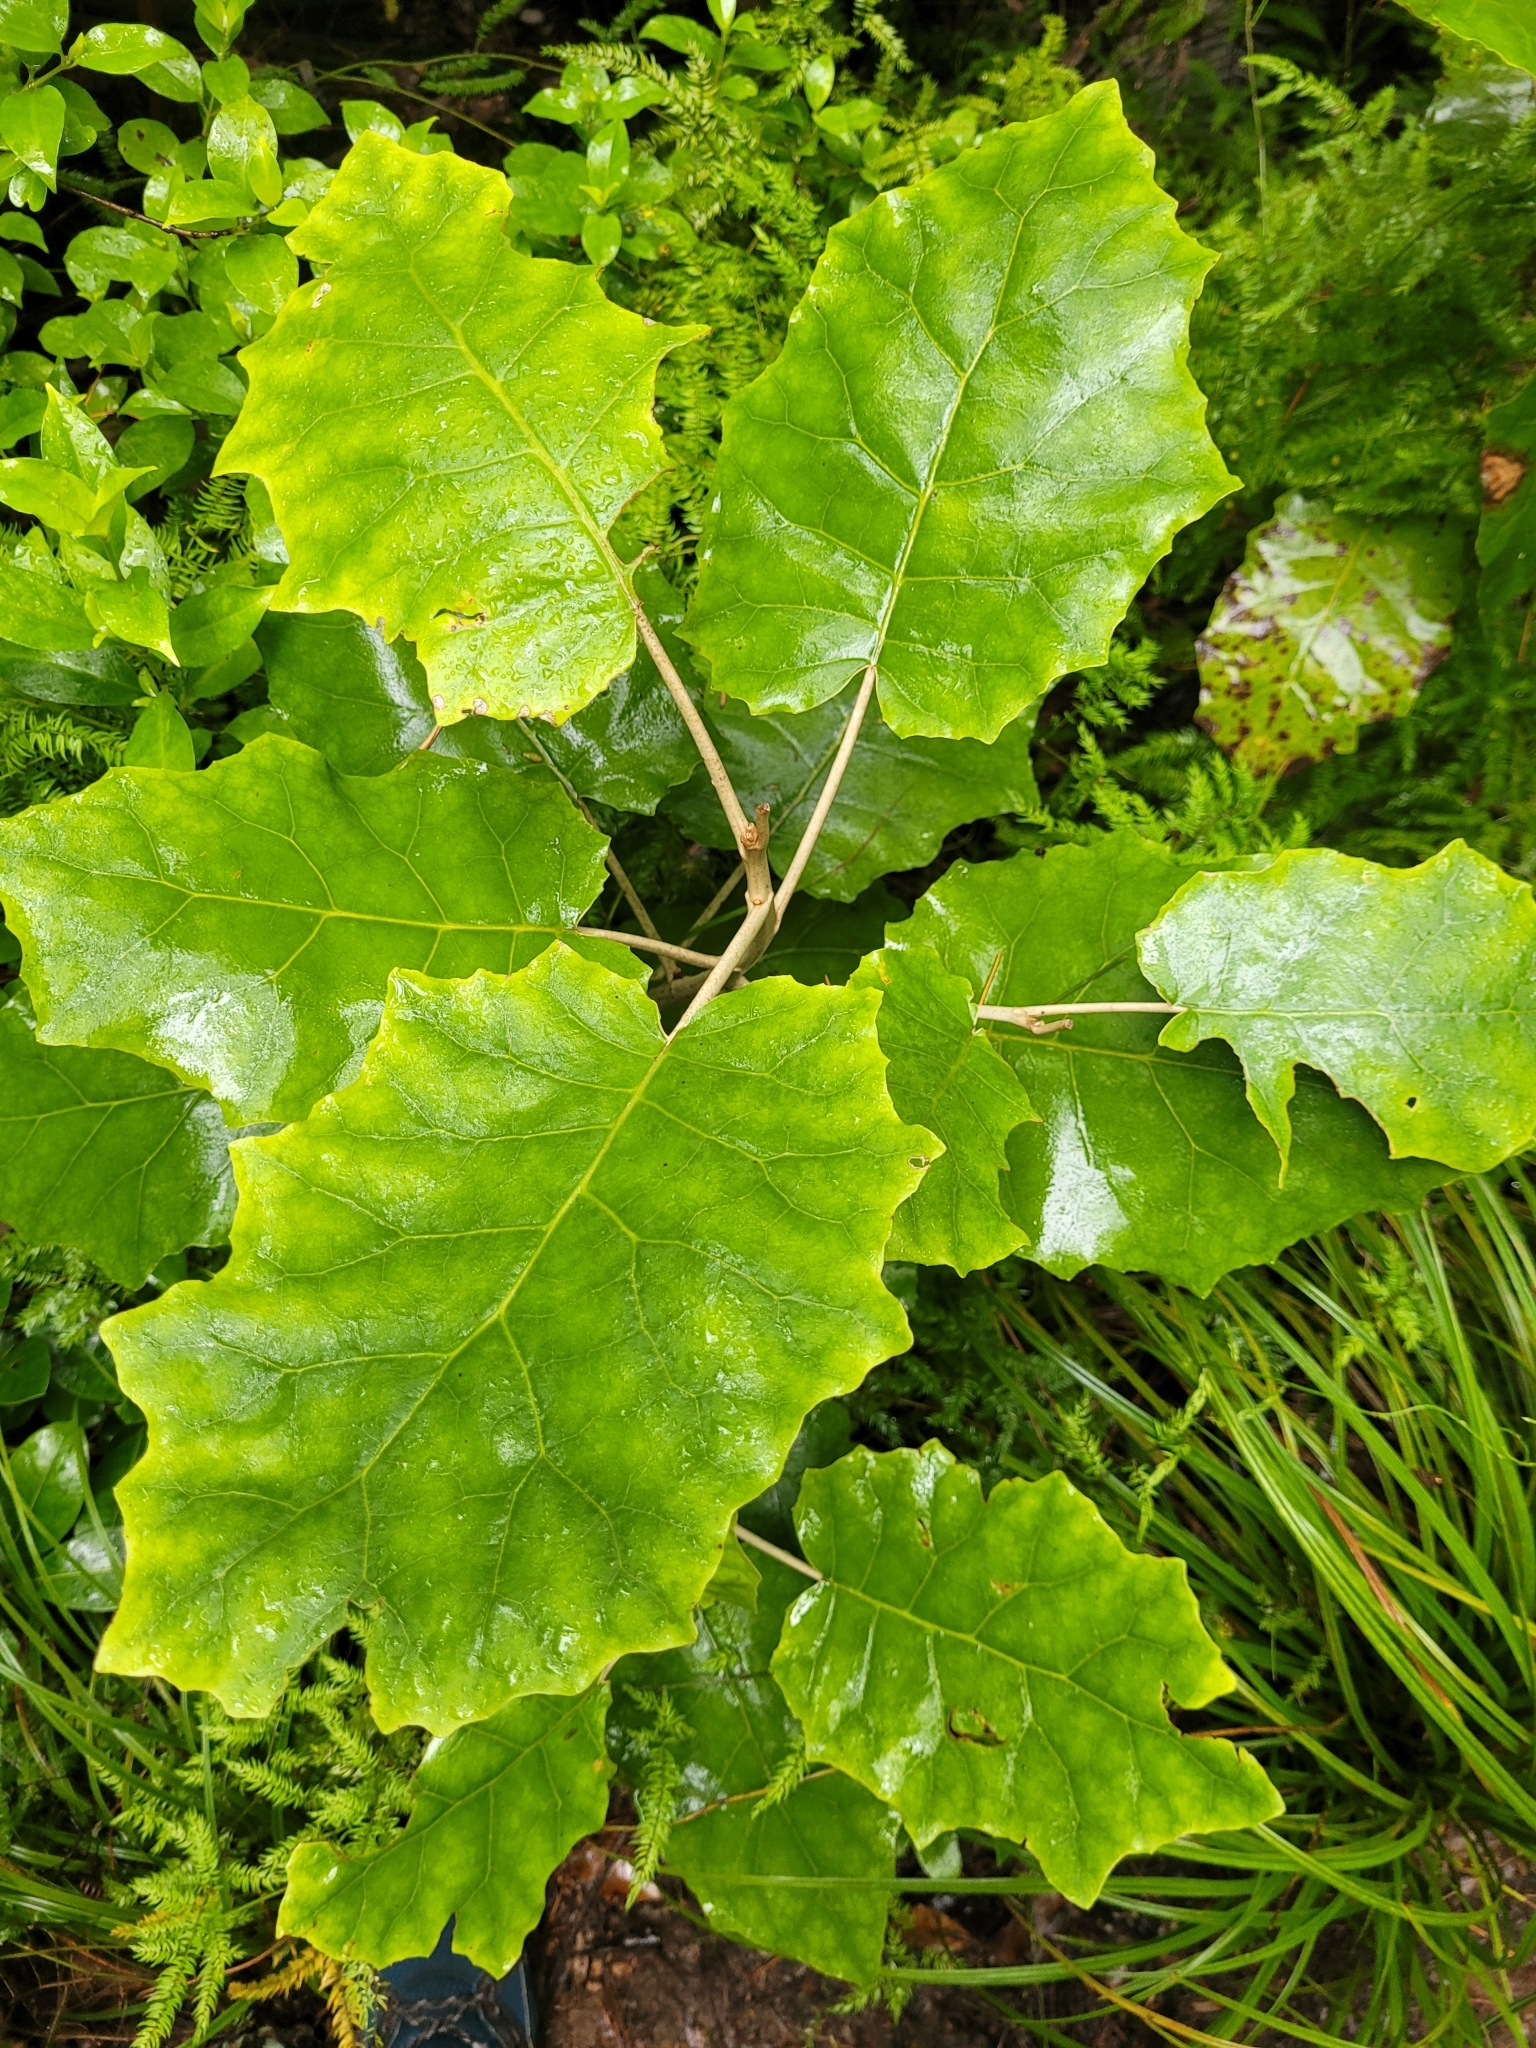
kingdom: Plantae
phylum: Tracheophyta
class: Magnoliopsida
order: Asterales
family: Asteraceae
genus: Brachyglottis
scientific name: Brachyglottis repanda
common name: Hedge ragwort
